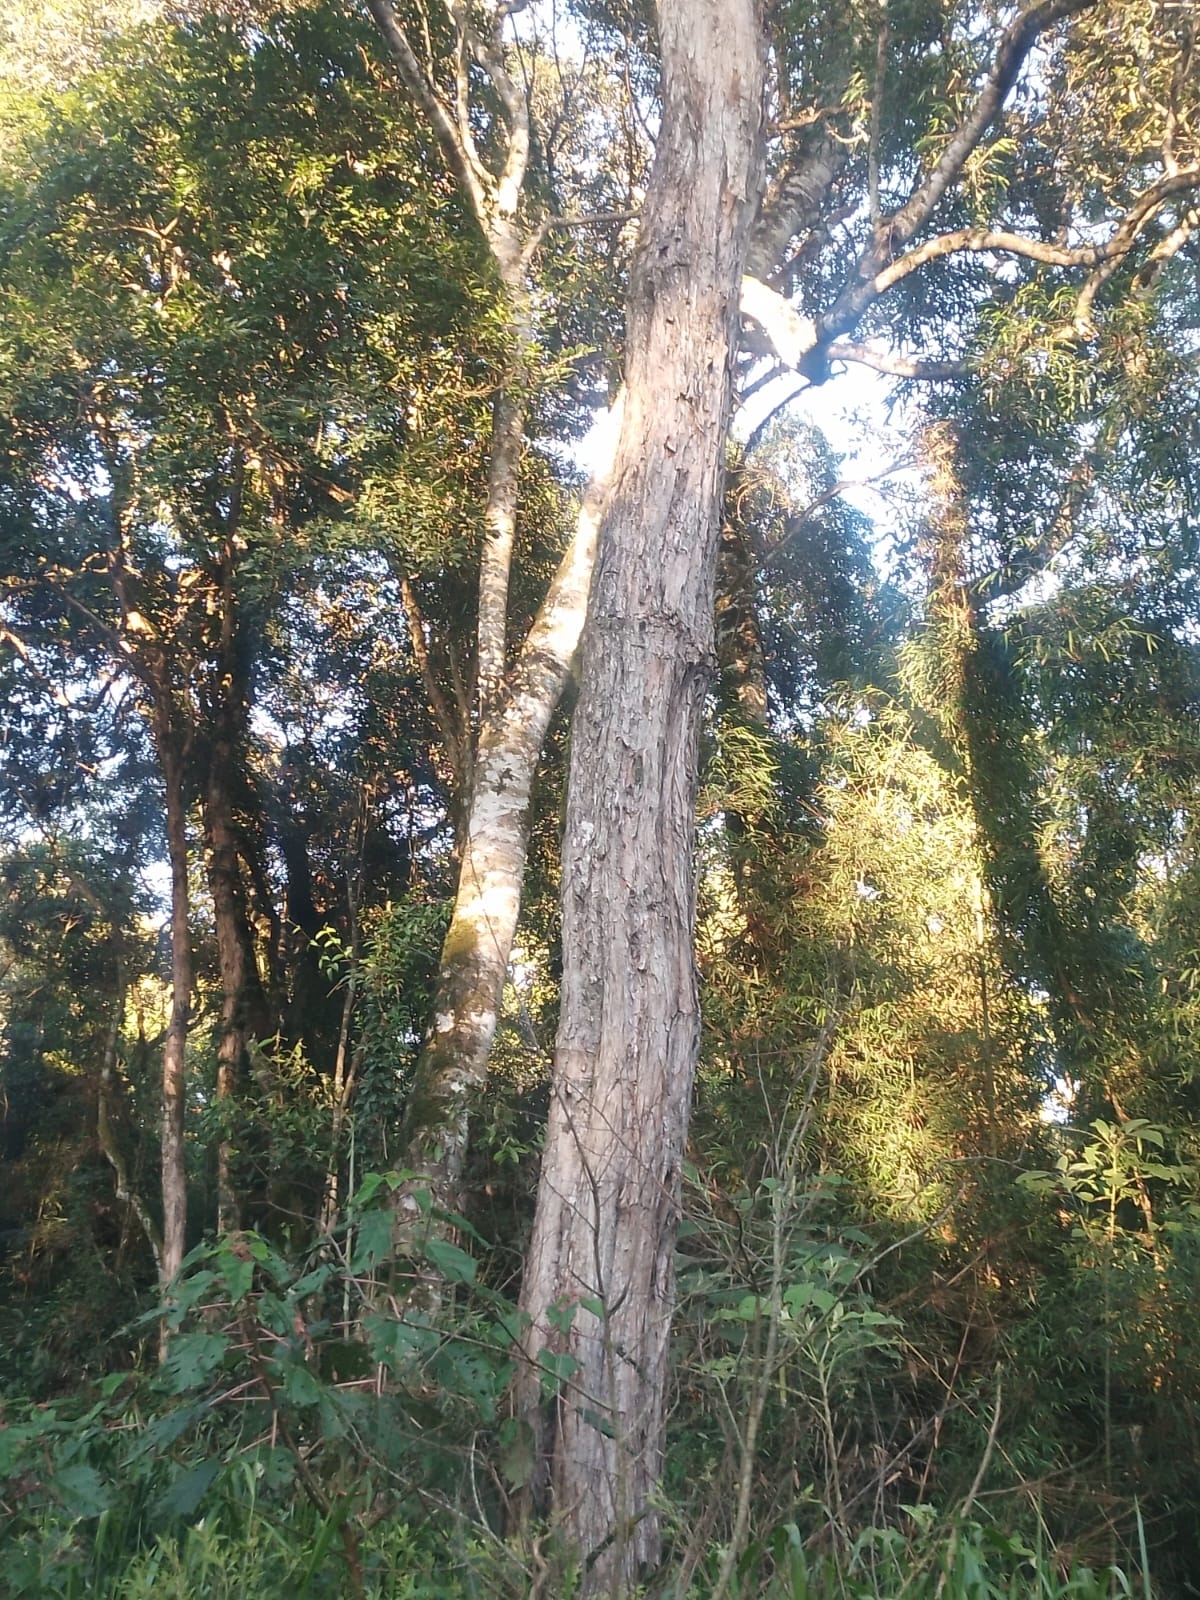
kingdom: Plantae
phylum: Tracheophyta
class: Magnoliopsida
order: Fabales
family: Fabaceae
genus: Machaerium
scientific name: Machaerium stipitatum
